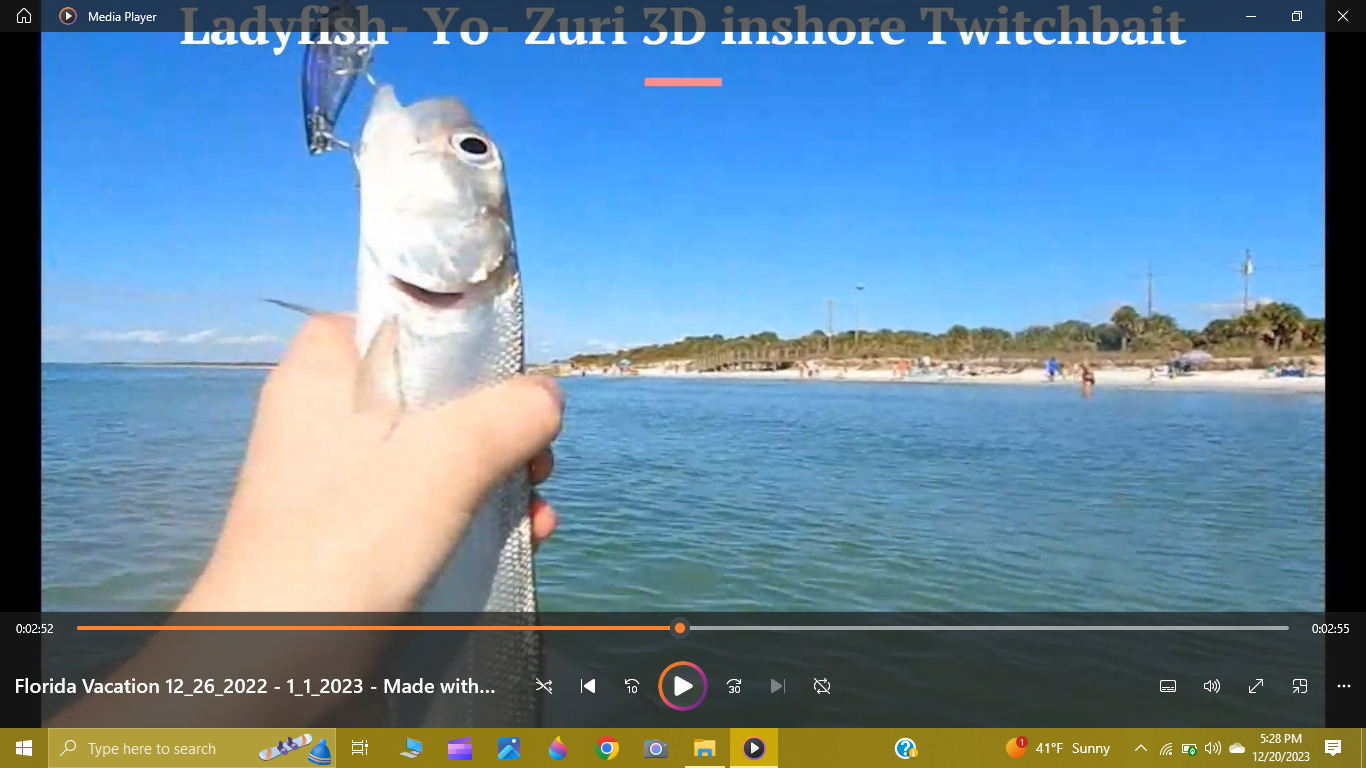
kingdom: Animalia
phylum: Chordata
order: Elopiformes
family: Elopidae
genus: Elops
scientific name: Elops saurus
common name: Ladyfish
